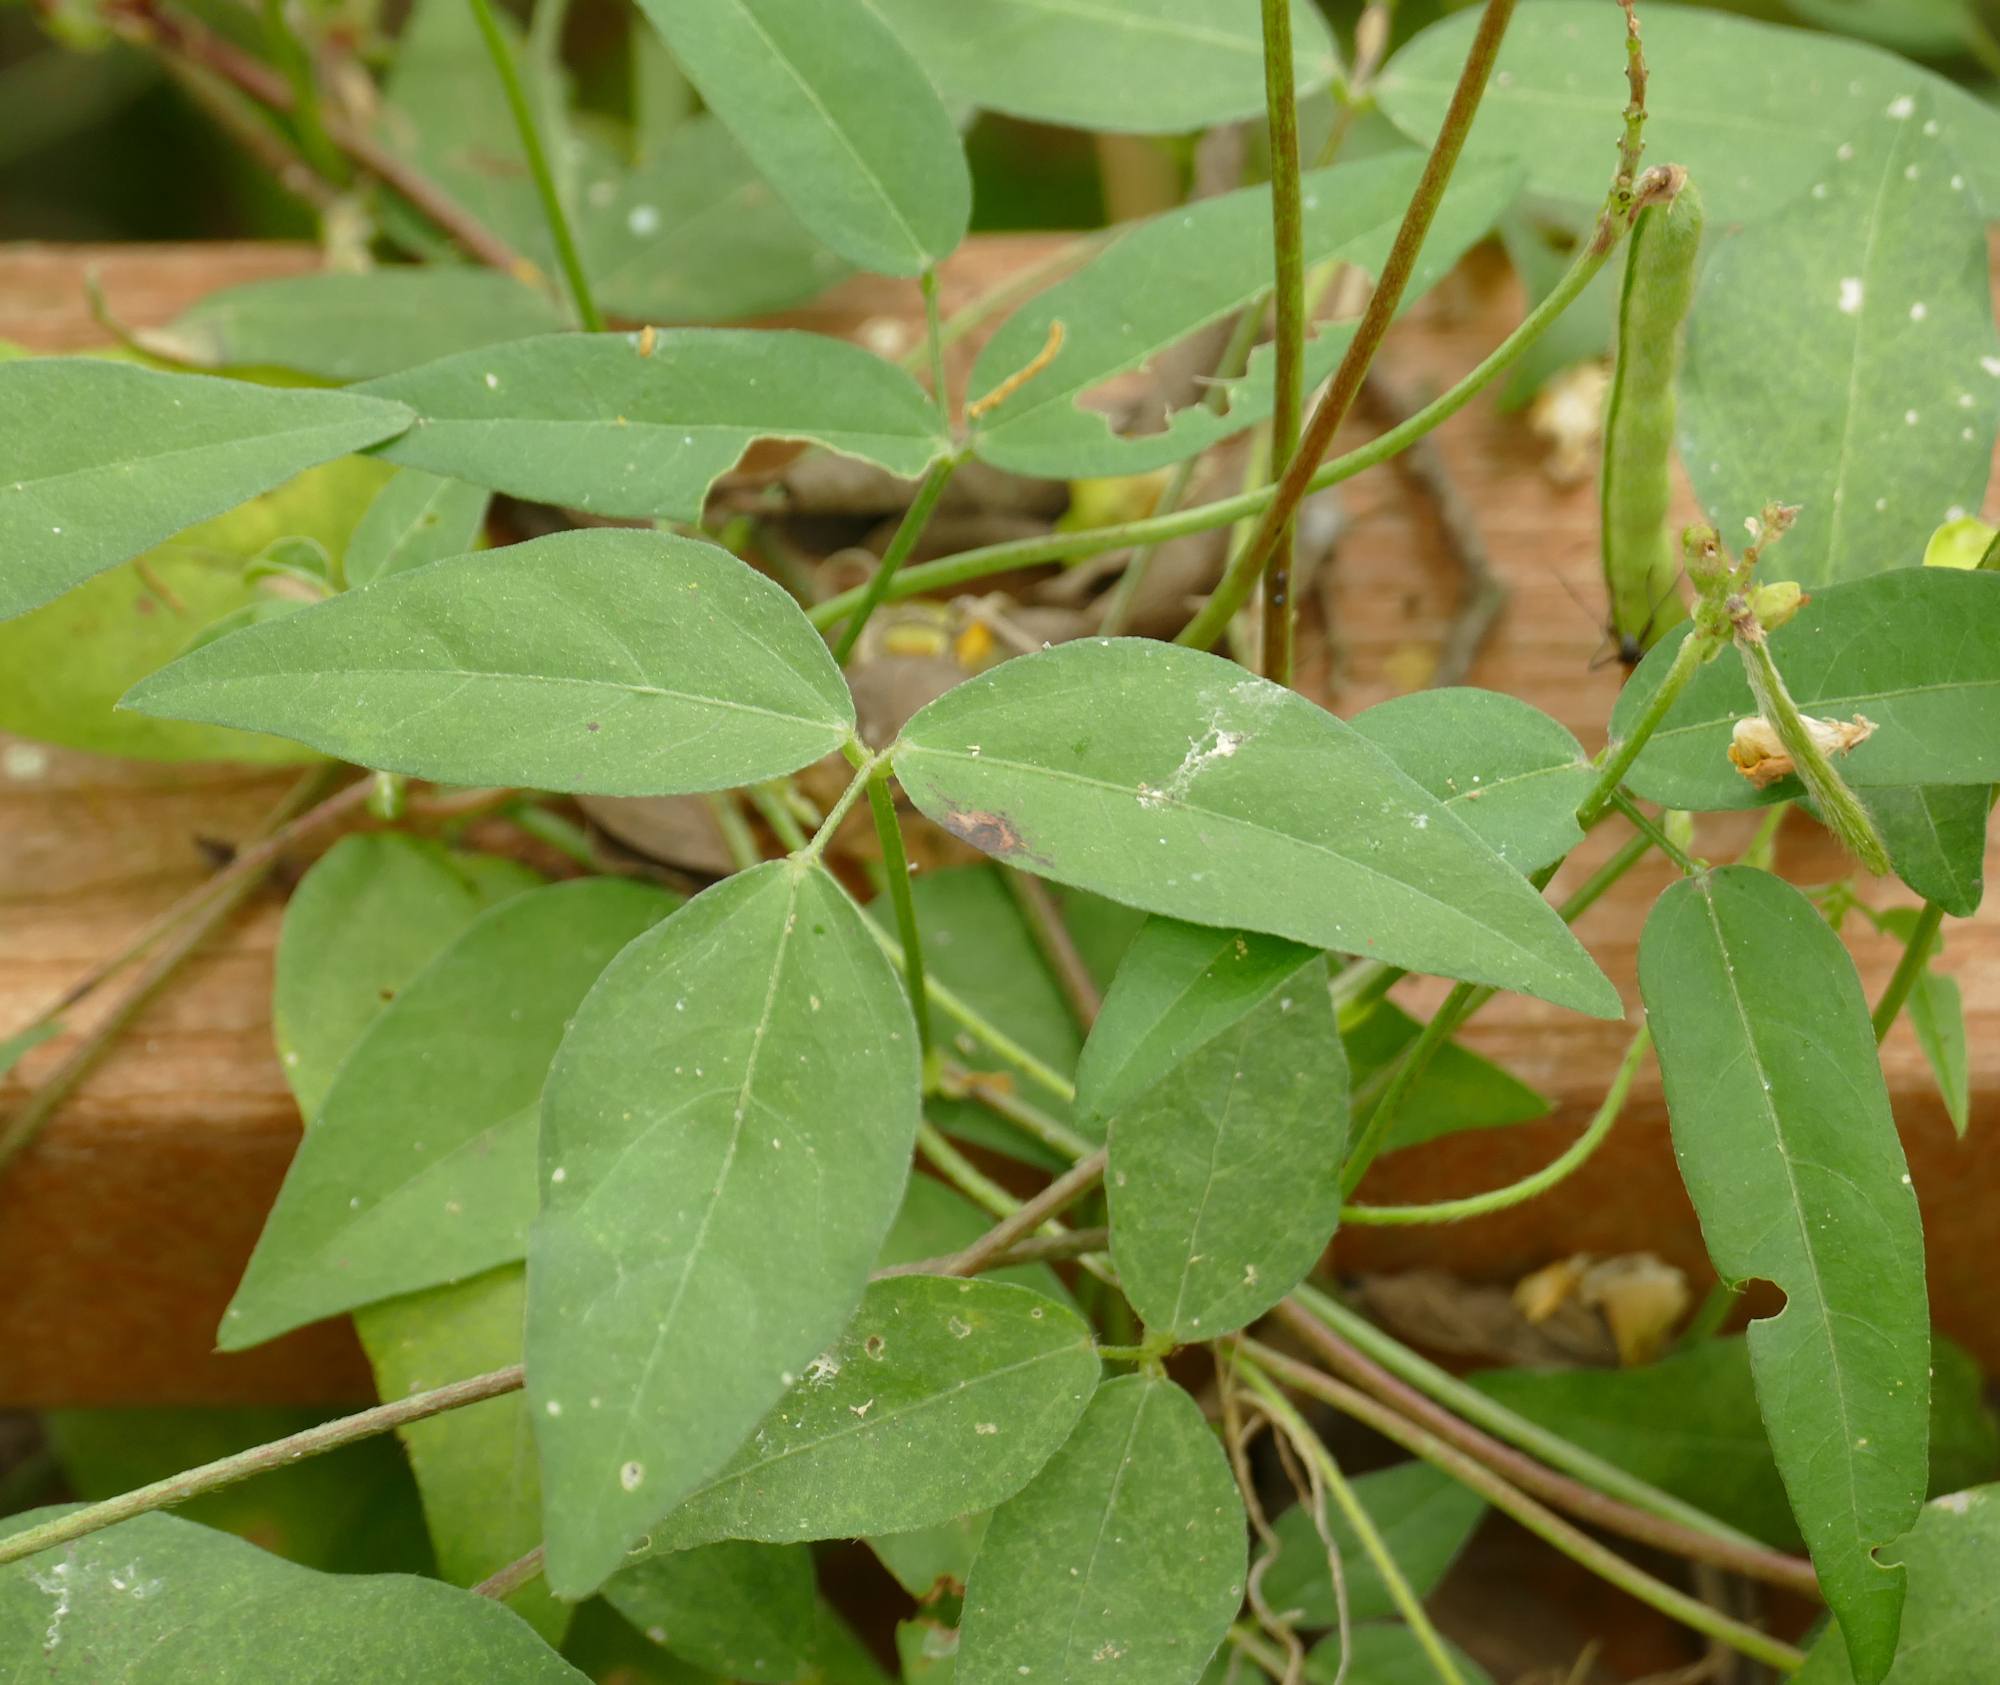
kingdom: Plantae
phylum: Tracheophyta
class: Magnoliopsida
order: Fabales
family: Fabaceae
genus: Vigna
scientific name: Vigna luteola
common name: Hairypod cowpea
